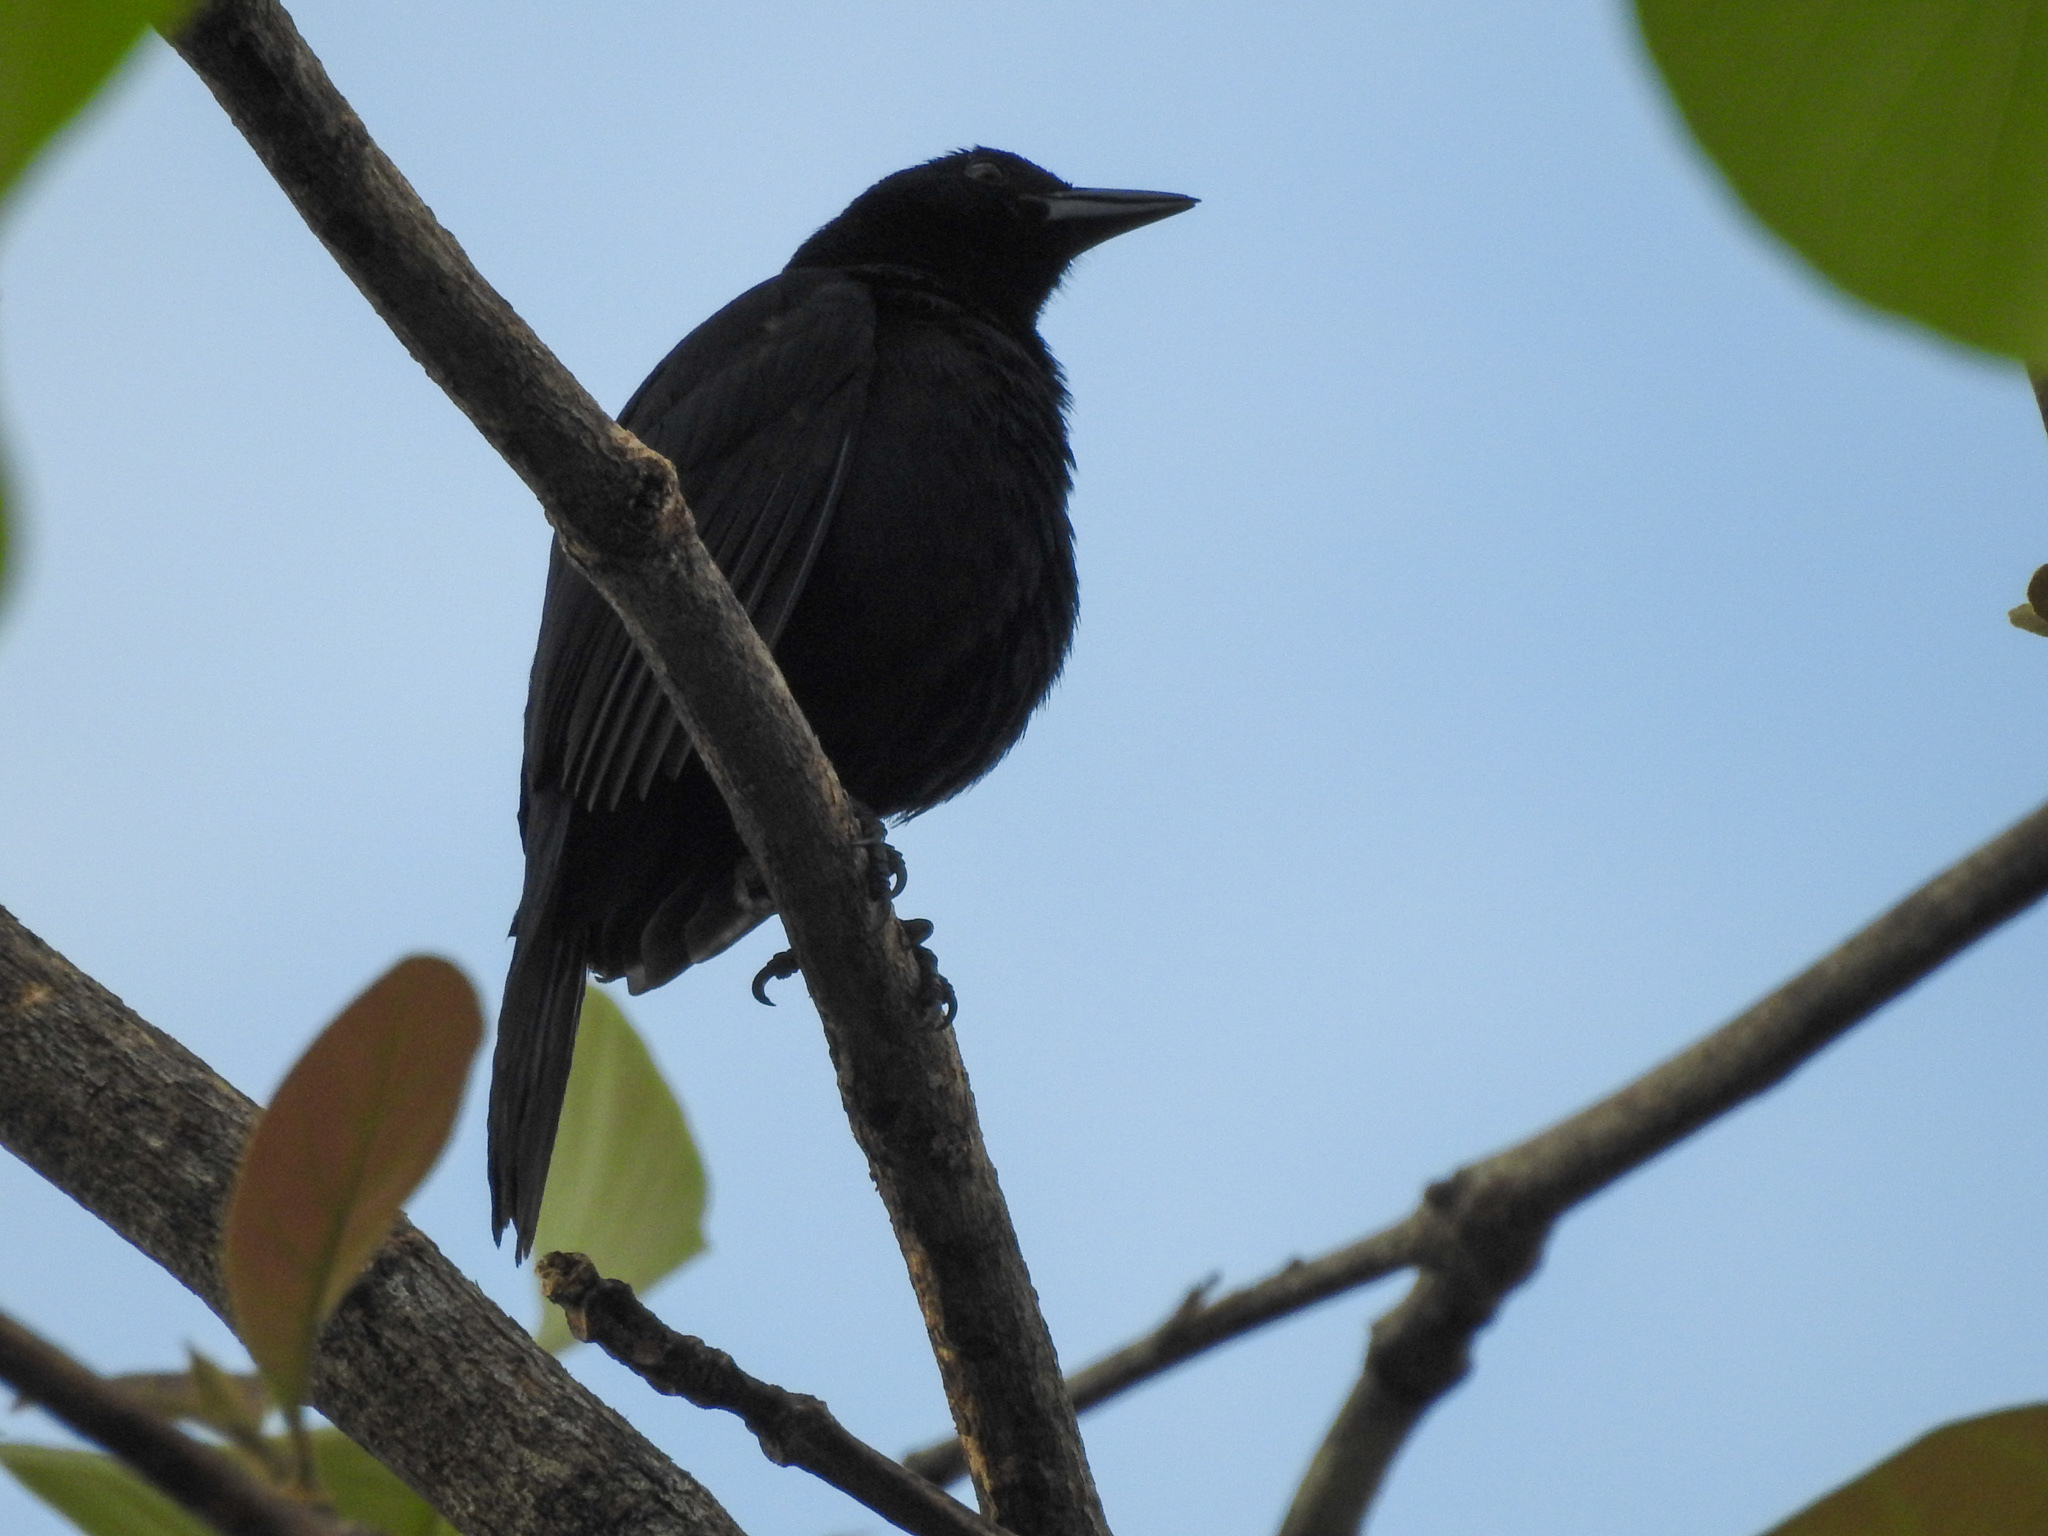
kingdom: Animalia
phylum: Chordata
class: Aves
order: Passeriformes
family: Icteridae
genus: Dives
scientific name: Dives dives
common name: Melodious blackbird
